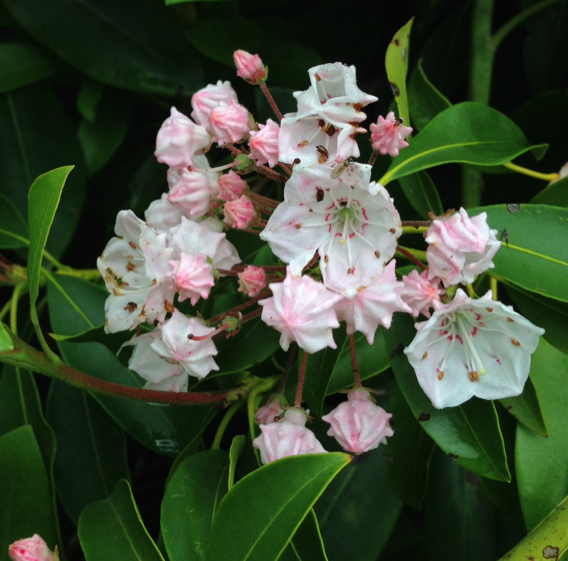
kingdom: Plantae
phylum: Tracheophyta
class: Magnoliopsida
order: Ericales
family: Ericaceae
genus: Kalmia
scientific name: Kalmia latifolia
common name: Mountain-laurel
